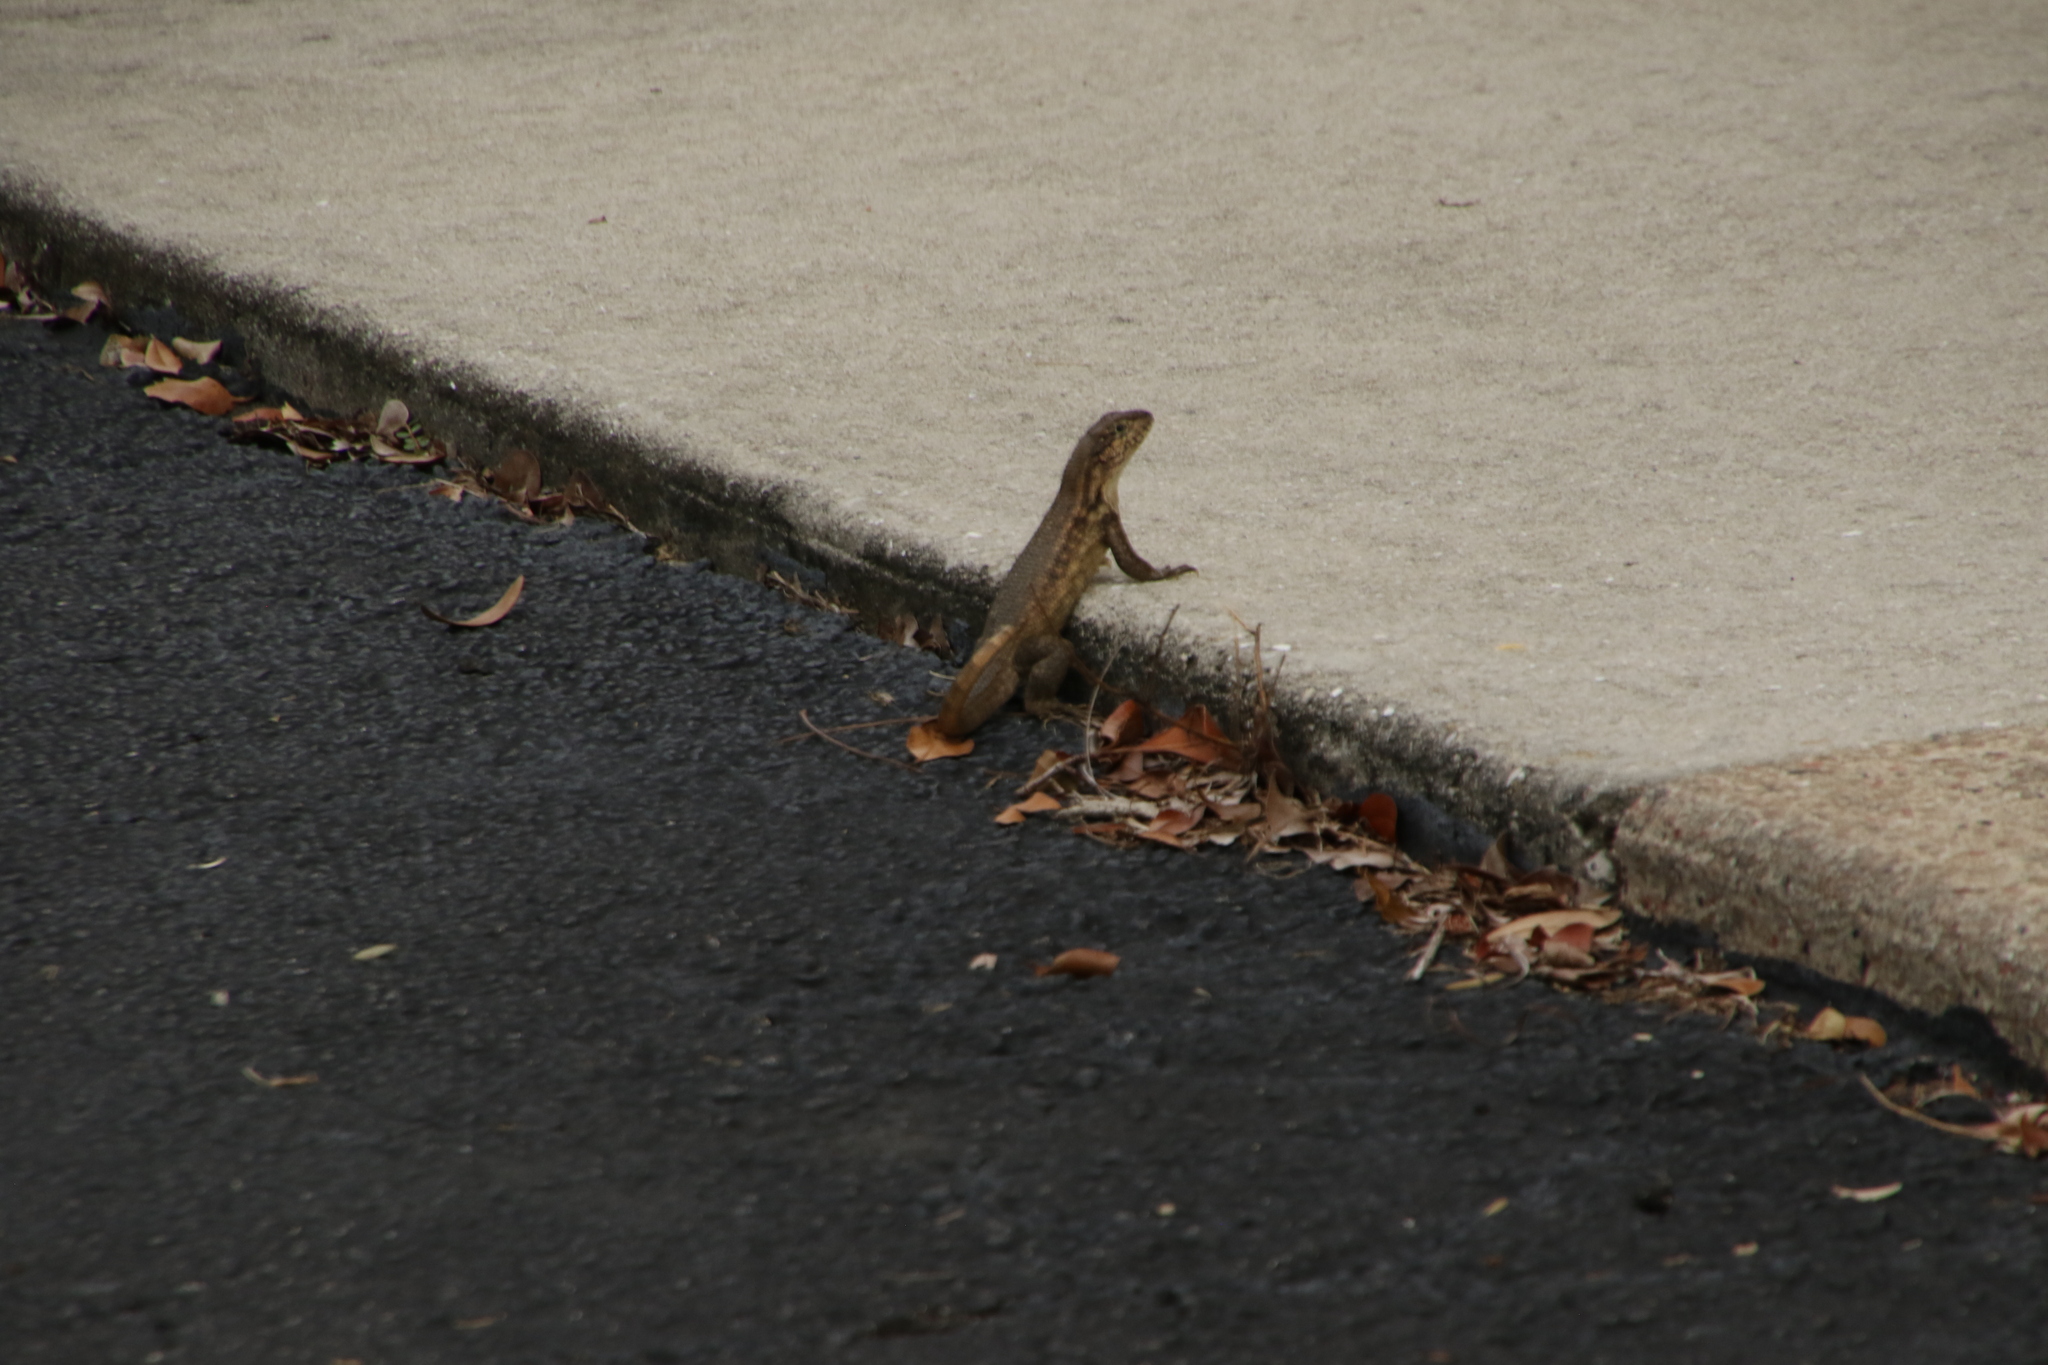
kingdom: Animalia
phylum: Chordata
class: Squamata
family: Leiocephalidae
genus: Leiocephalus
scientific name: Leiocephalus carinatus
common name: Northern curly-tailed lizard
